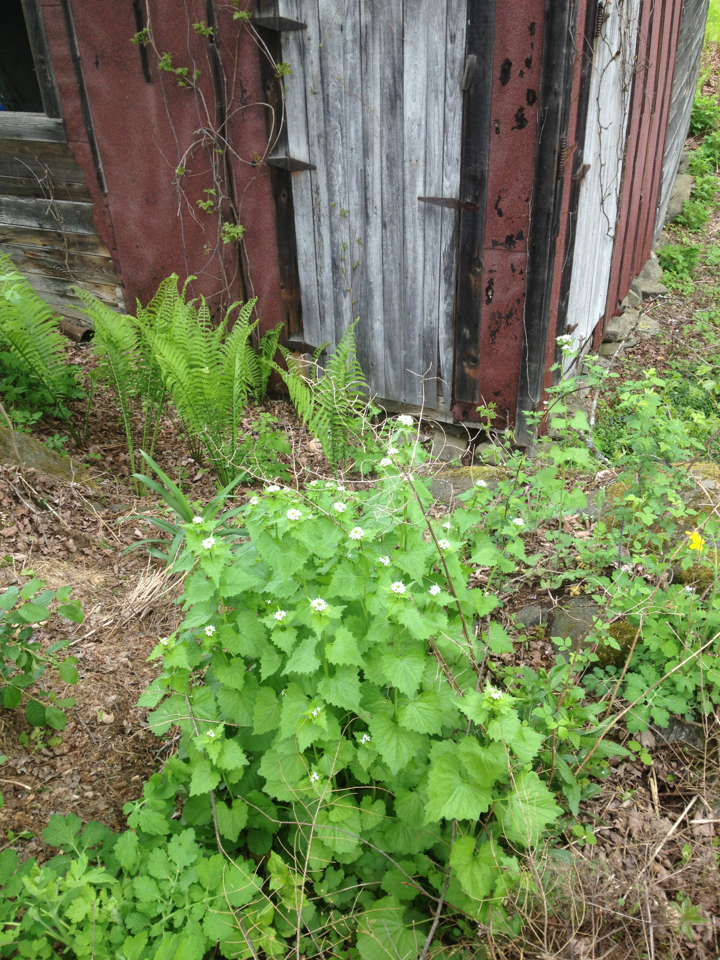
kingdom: Plantae
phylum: Tracheophyta
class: Magnoliopsida
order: Brassicales
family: Brassicaceae
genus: Alliaria
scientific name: Alliaria petiolata
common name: Garlic mustard
